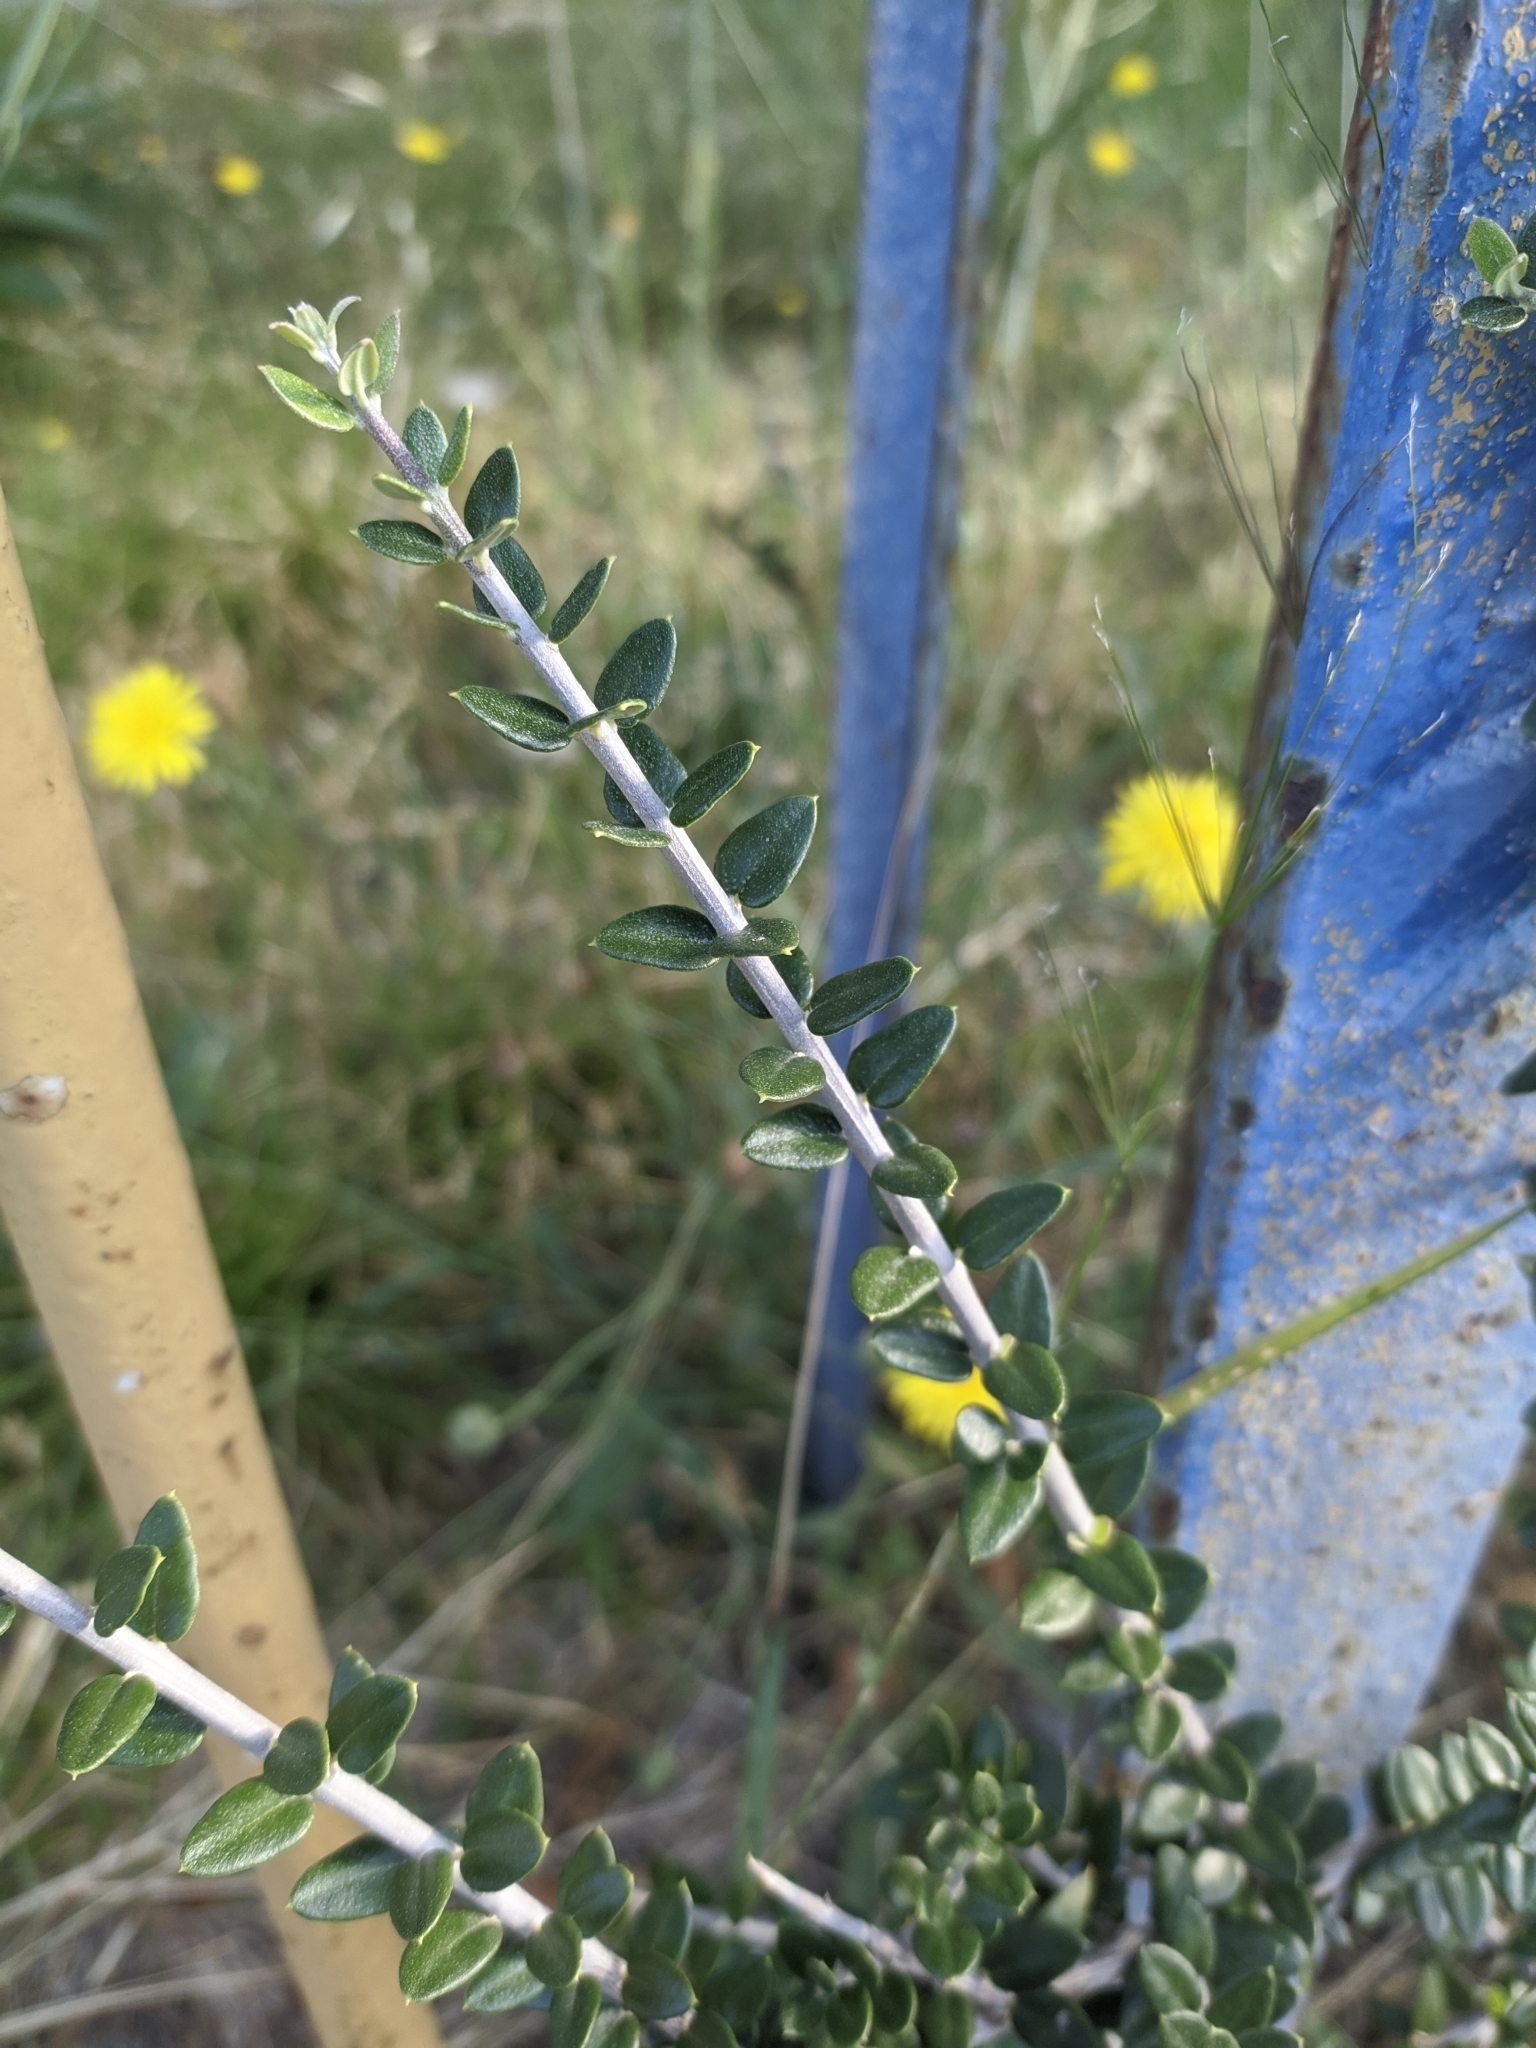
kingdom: Plantae
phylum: Tracheophyta
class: Magnoliopsida
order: Lamiales
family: Oleaceae
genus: Olea
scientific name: Olea europaea
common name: Olive
